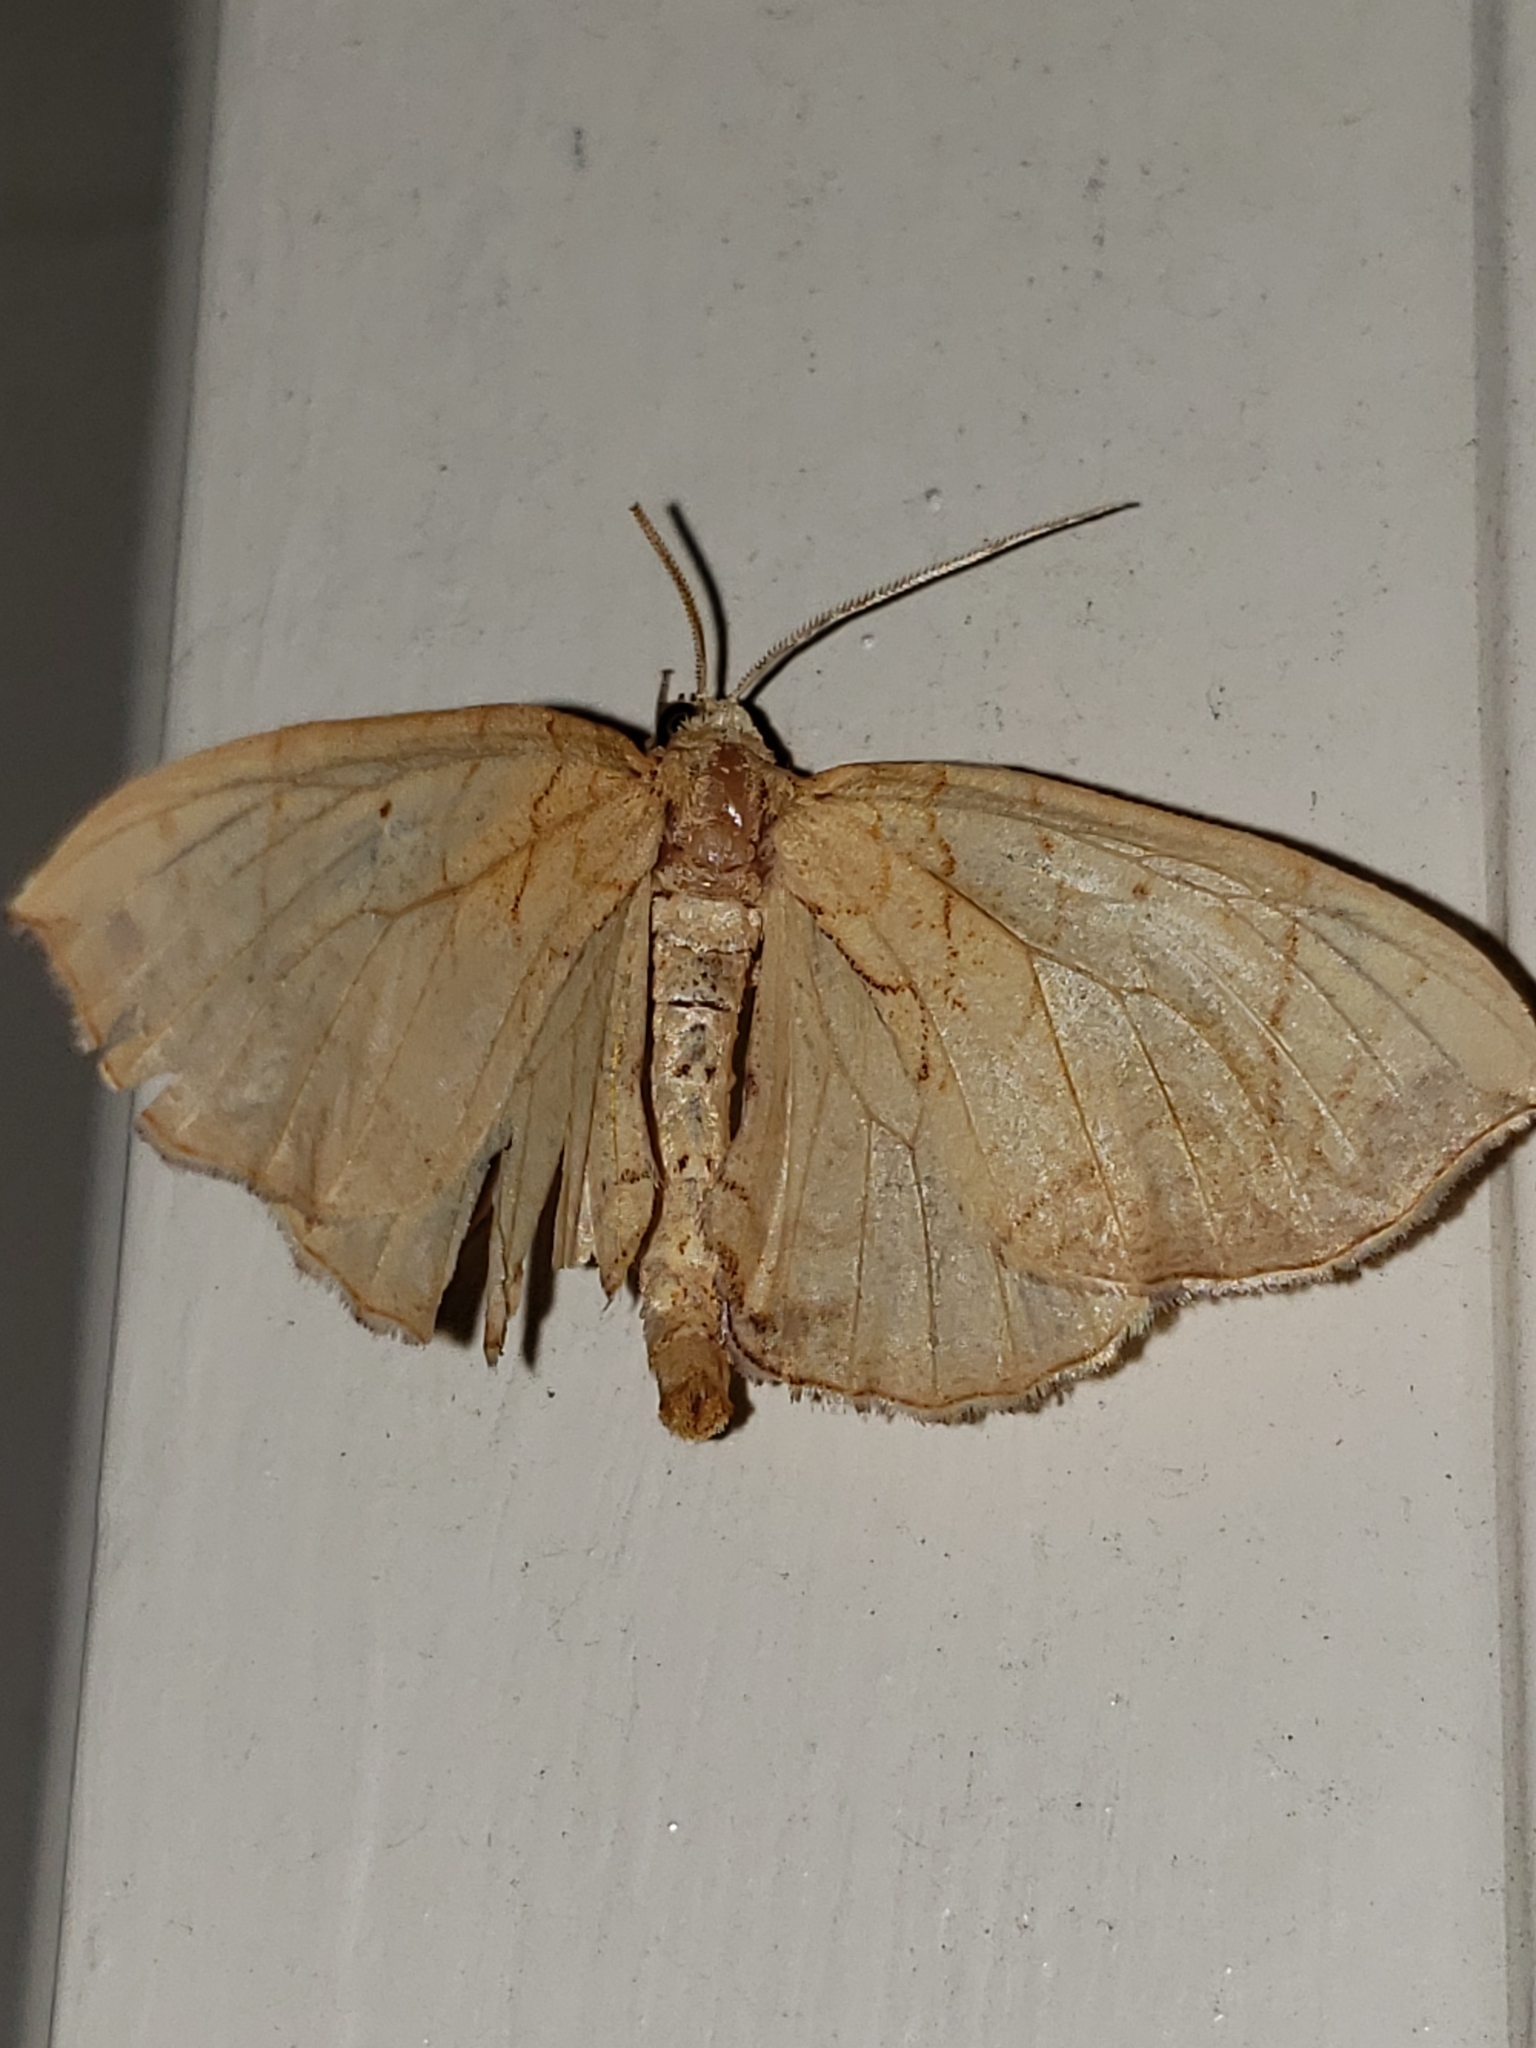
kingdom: Animalia
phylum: Arthropoda
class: Insecta
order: Lepidoptera
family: Geometridae
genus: Eulithis
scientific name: Eulithis
